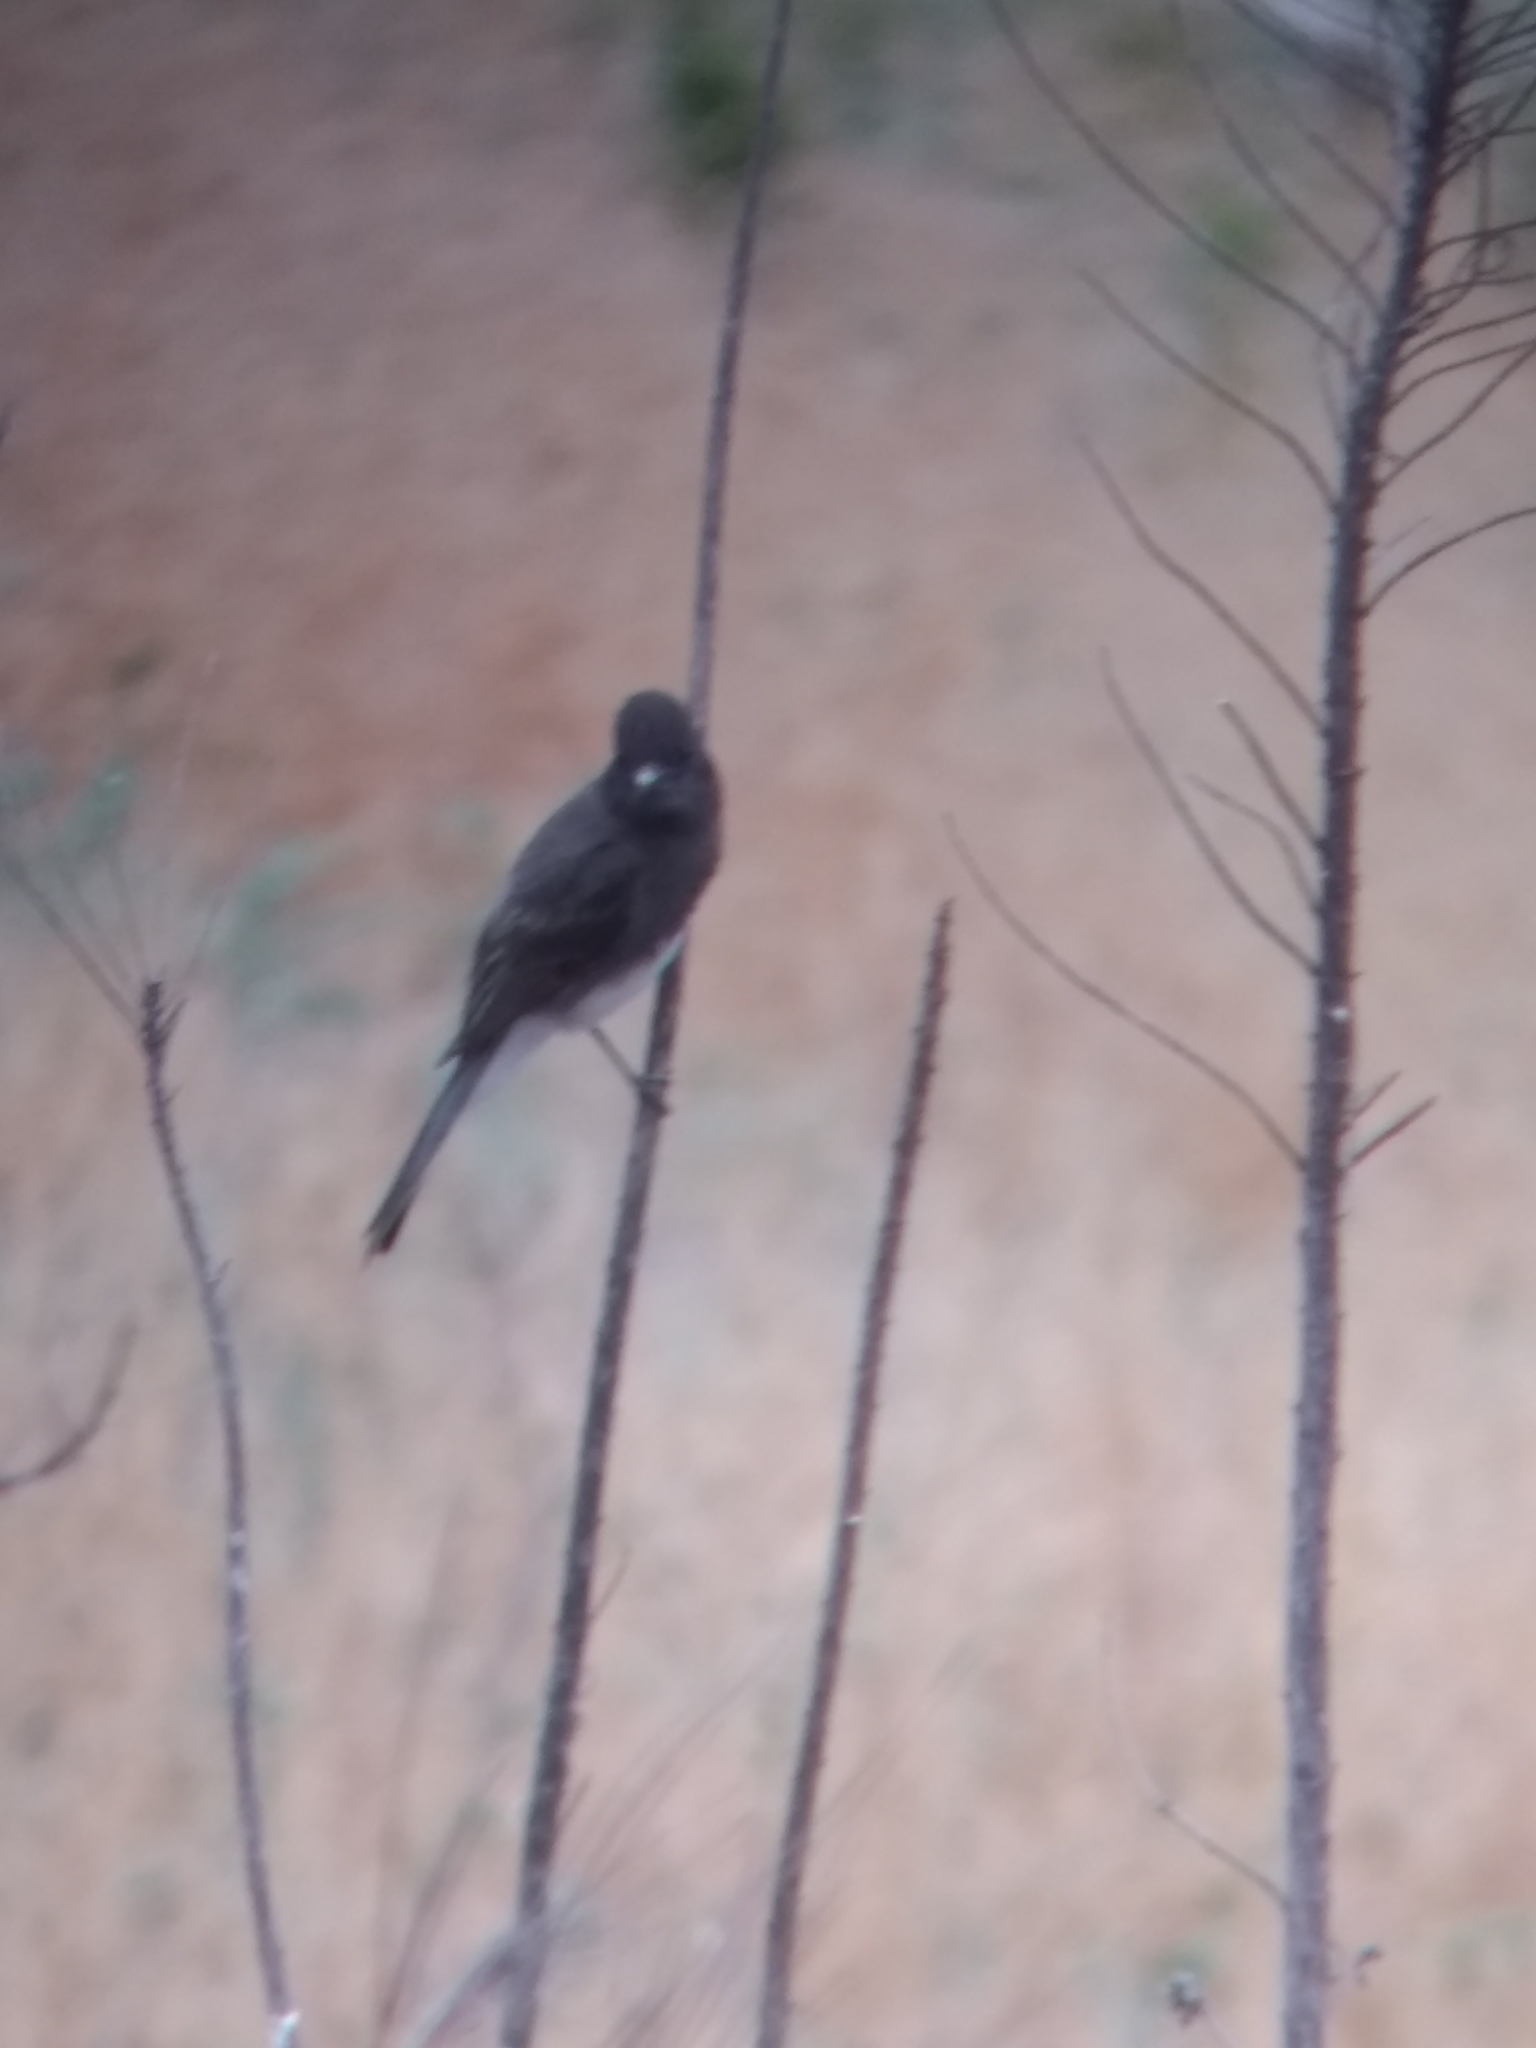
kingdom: Animalia
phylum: Chordata
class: Aves
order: Passeriformes
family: Tyrannidae
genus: Sayornis
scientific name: Sayornis nigricans
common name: Black phoebe
